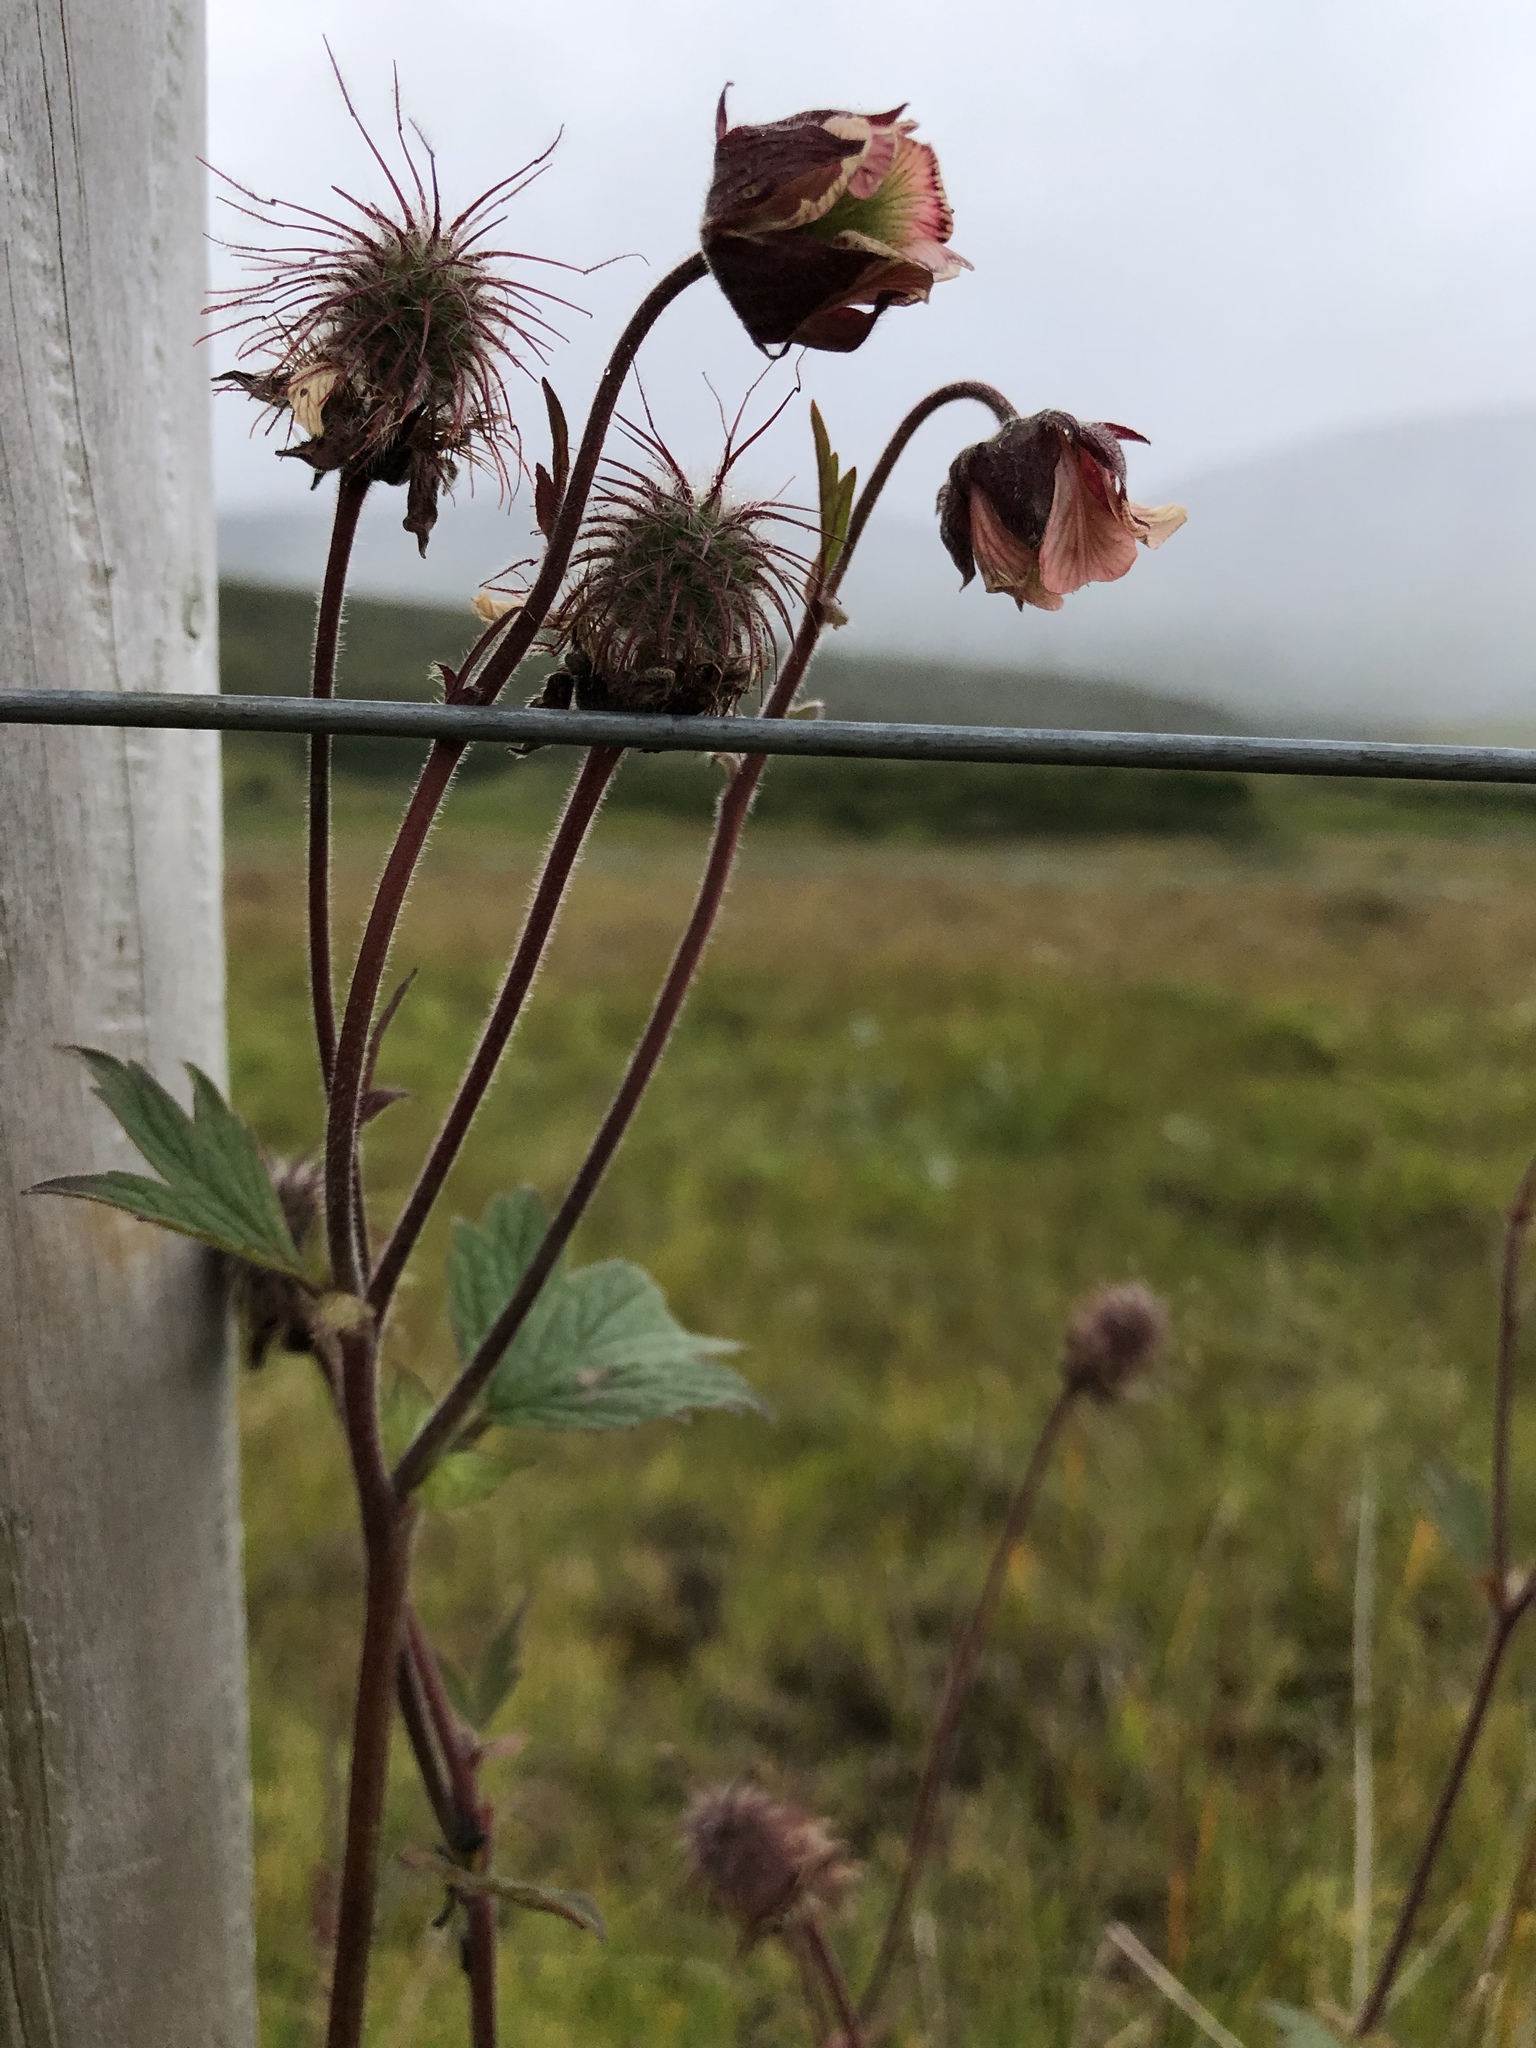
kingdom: Plantae
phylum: Tracheophyta
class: Magnoliopsida
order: Rosales
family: Rosaceae
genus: Geum
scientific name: Geum rivale
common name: Water avens
